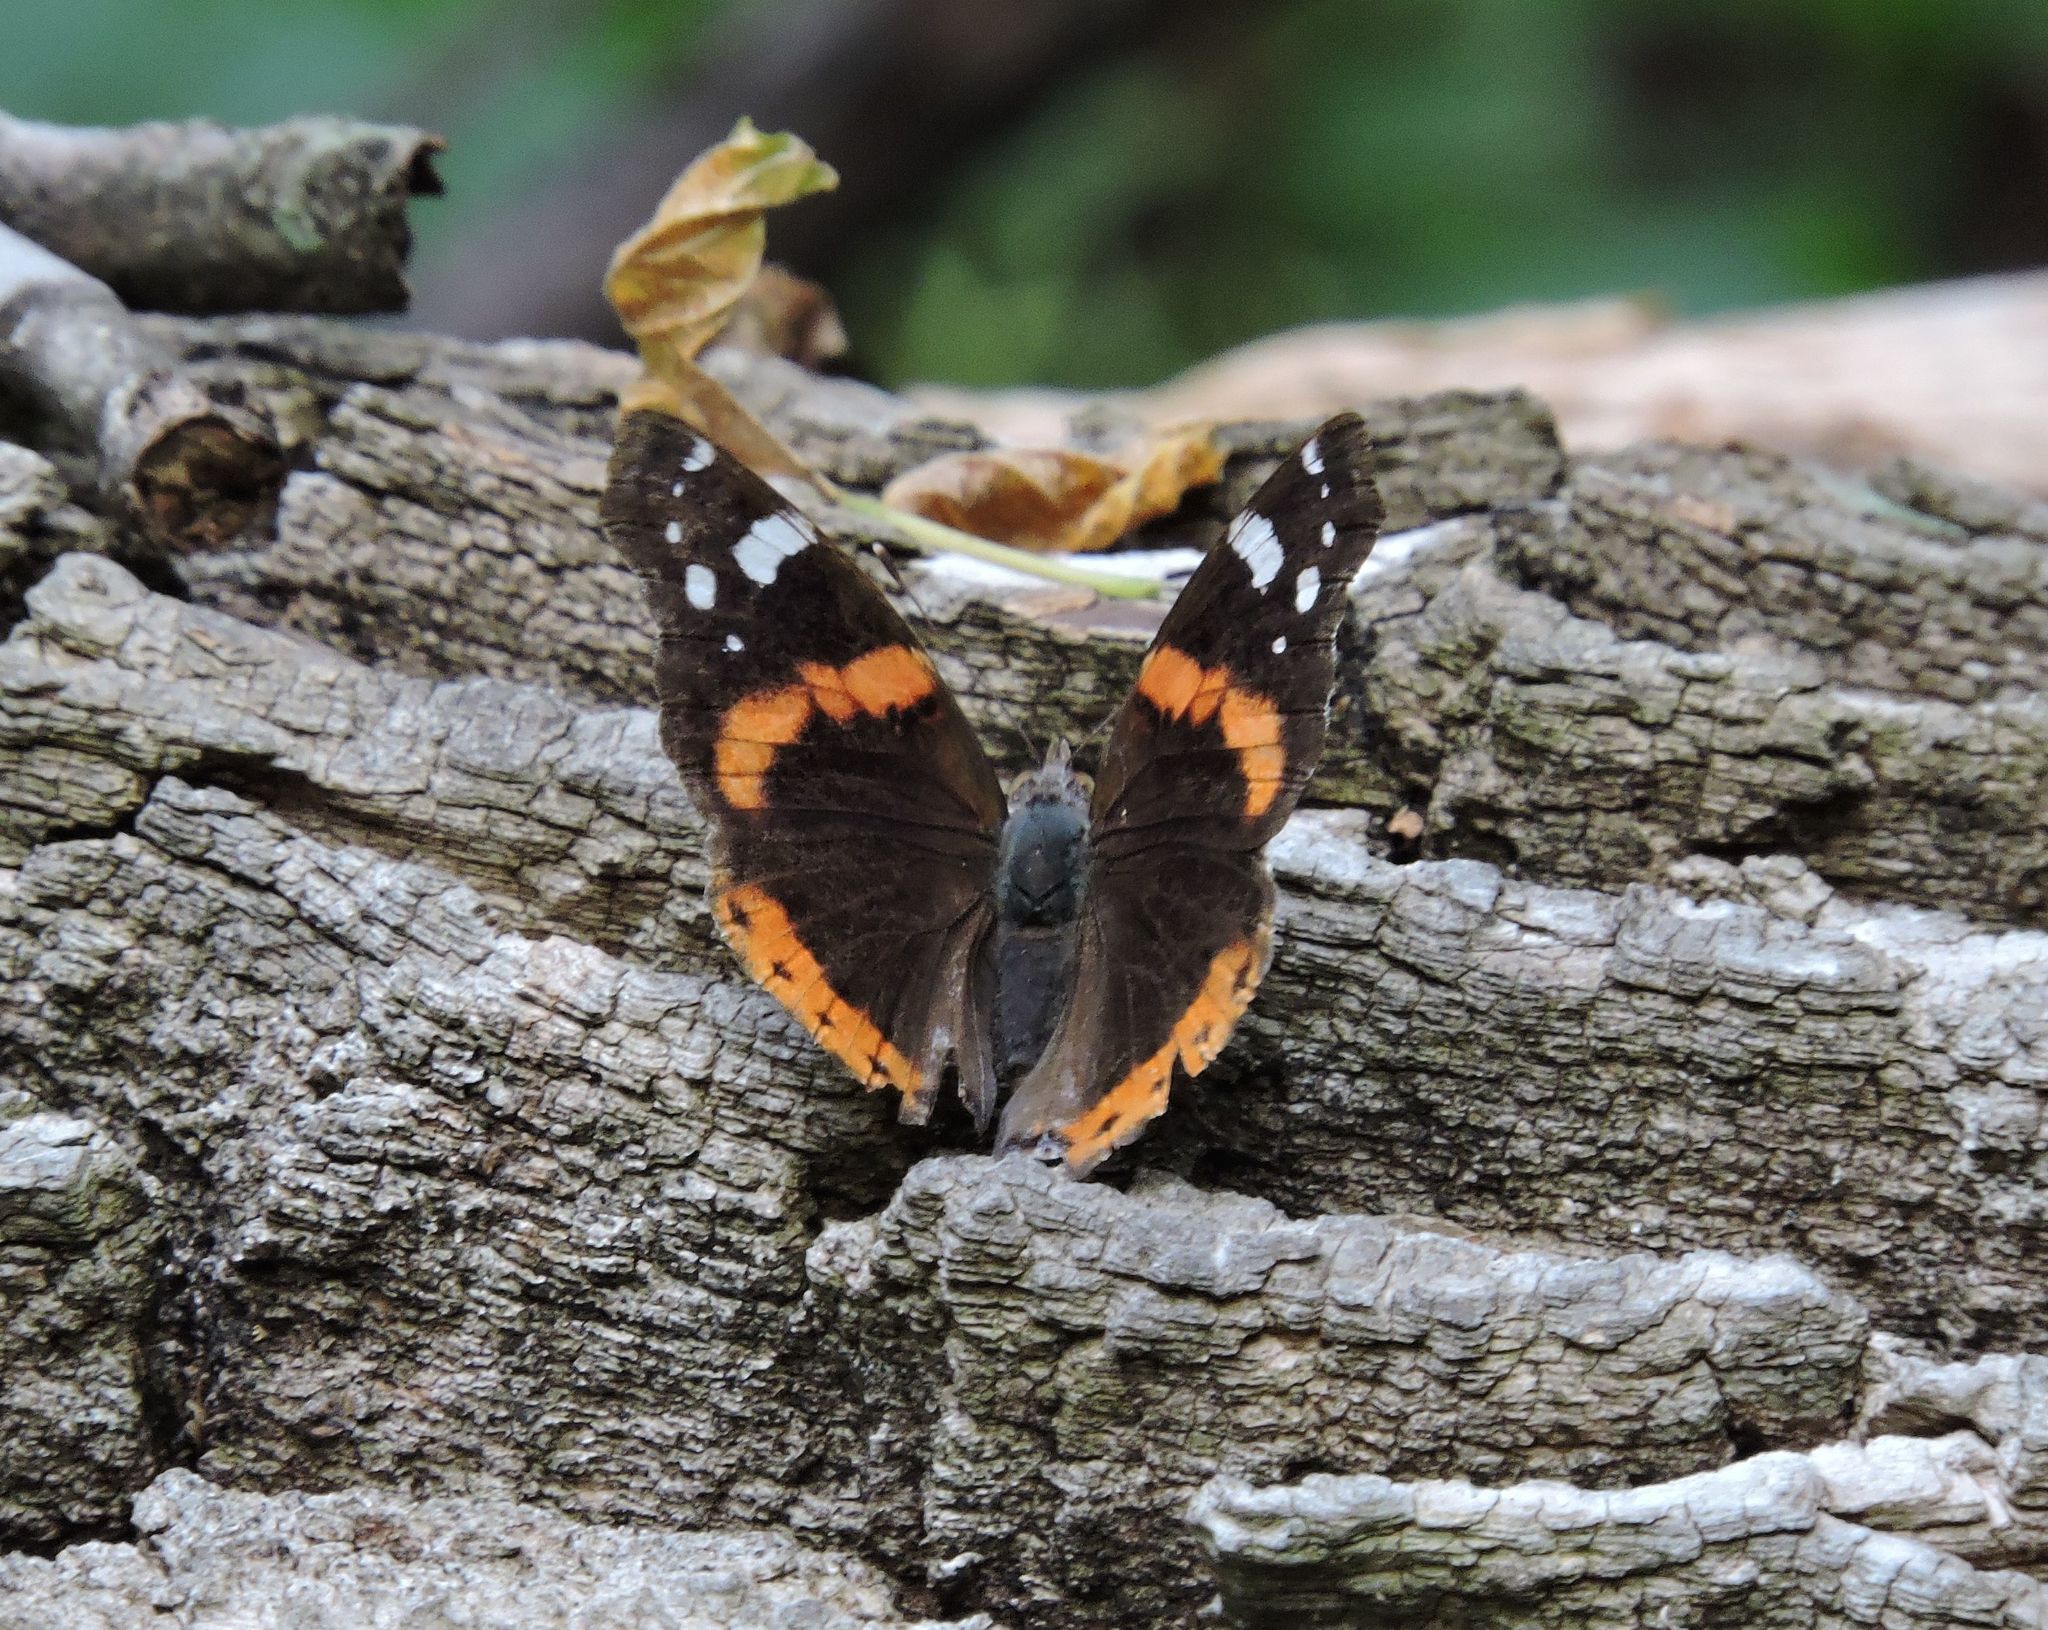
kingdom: Animalia
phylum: Arthropoda
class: Insecta
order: Lepidoptera
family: Nymphalidae
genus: Vanessa
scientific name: Vanessa atalanta
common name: Red admiral
